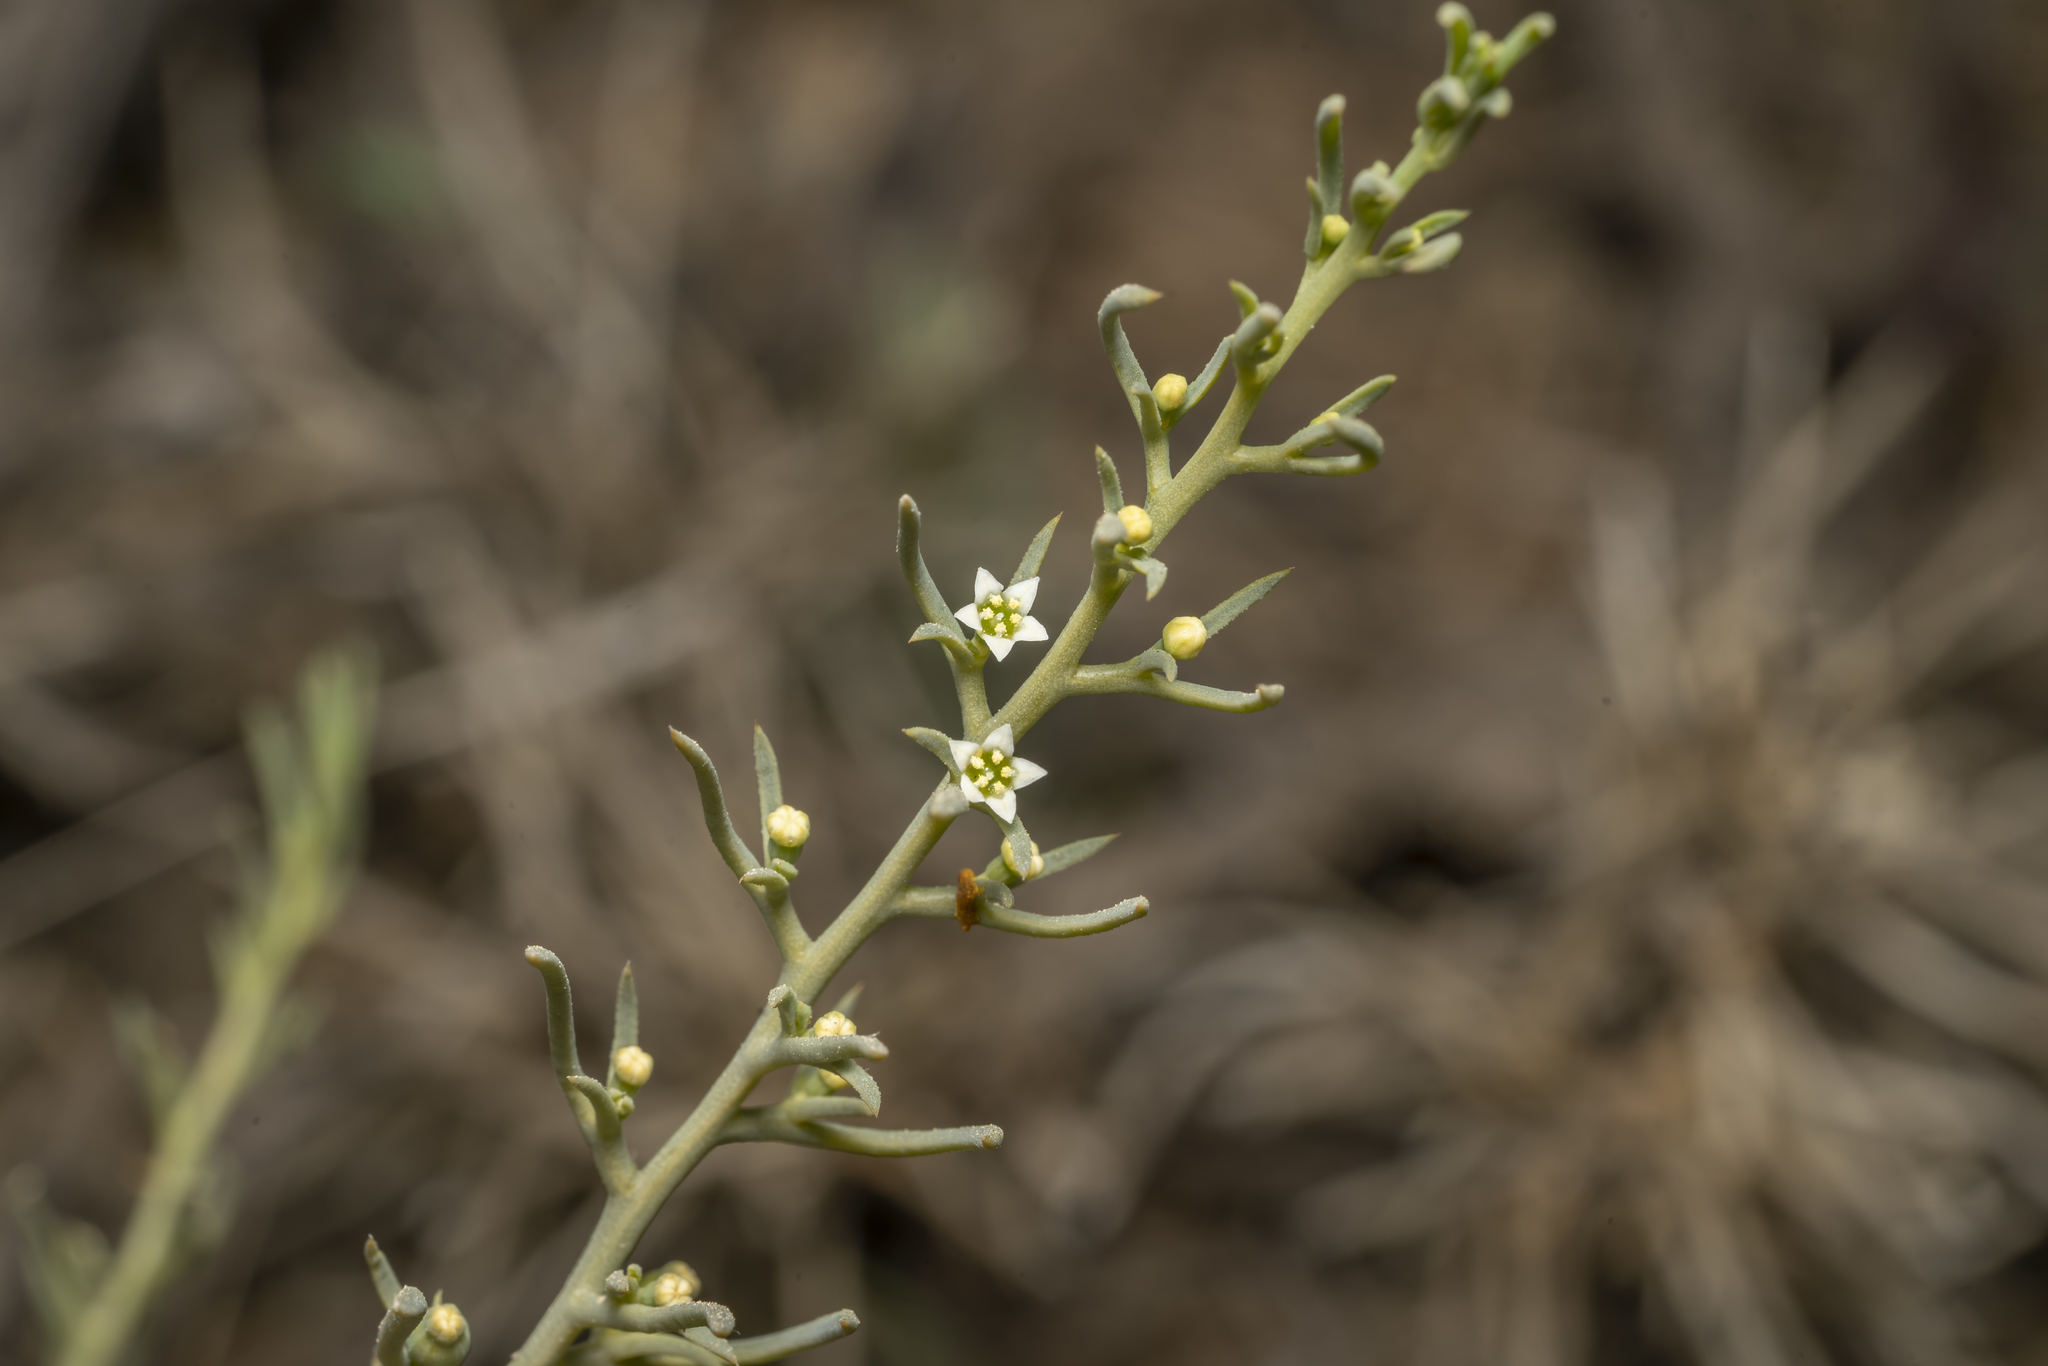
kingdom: Plantae
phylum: Tracheophyta
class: Magnoliopsida
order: Santalales
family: Thesiaceae
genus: Thesium
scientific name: Thesium bergeri
